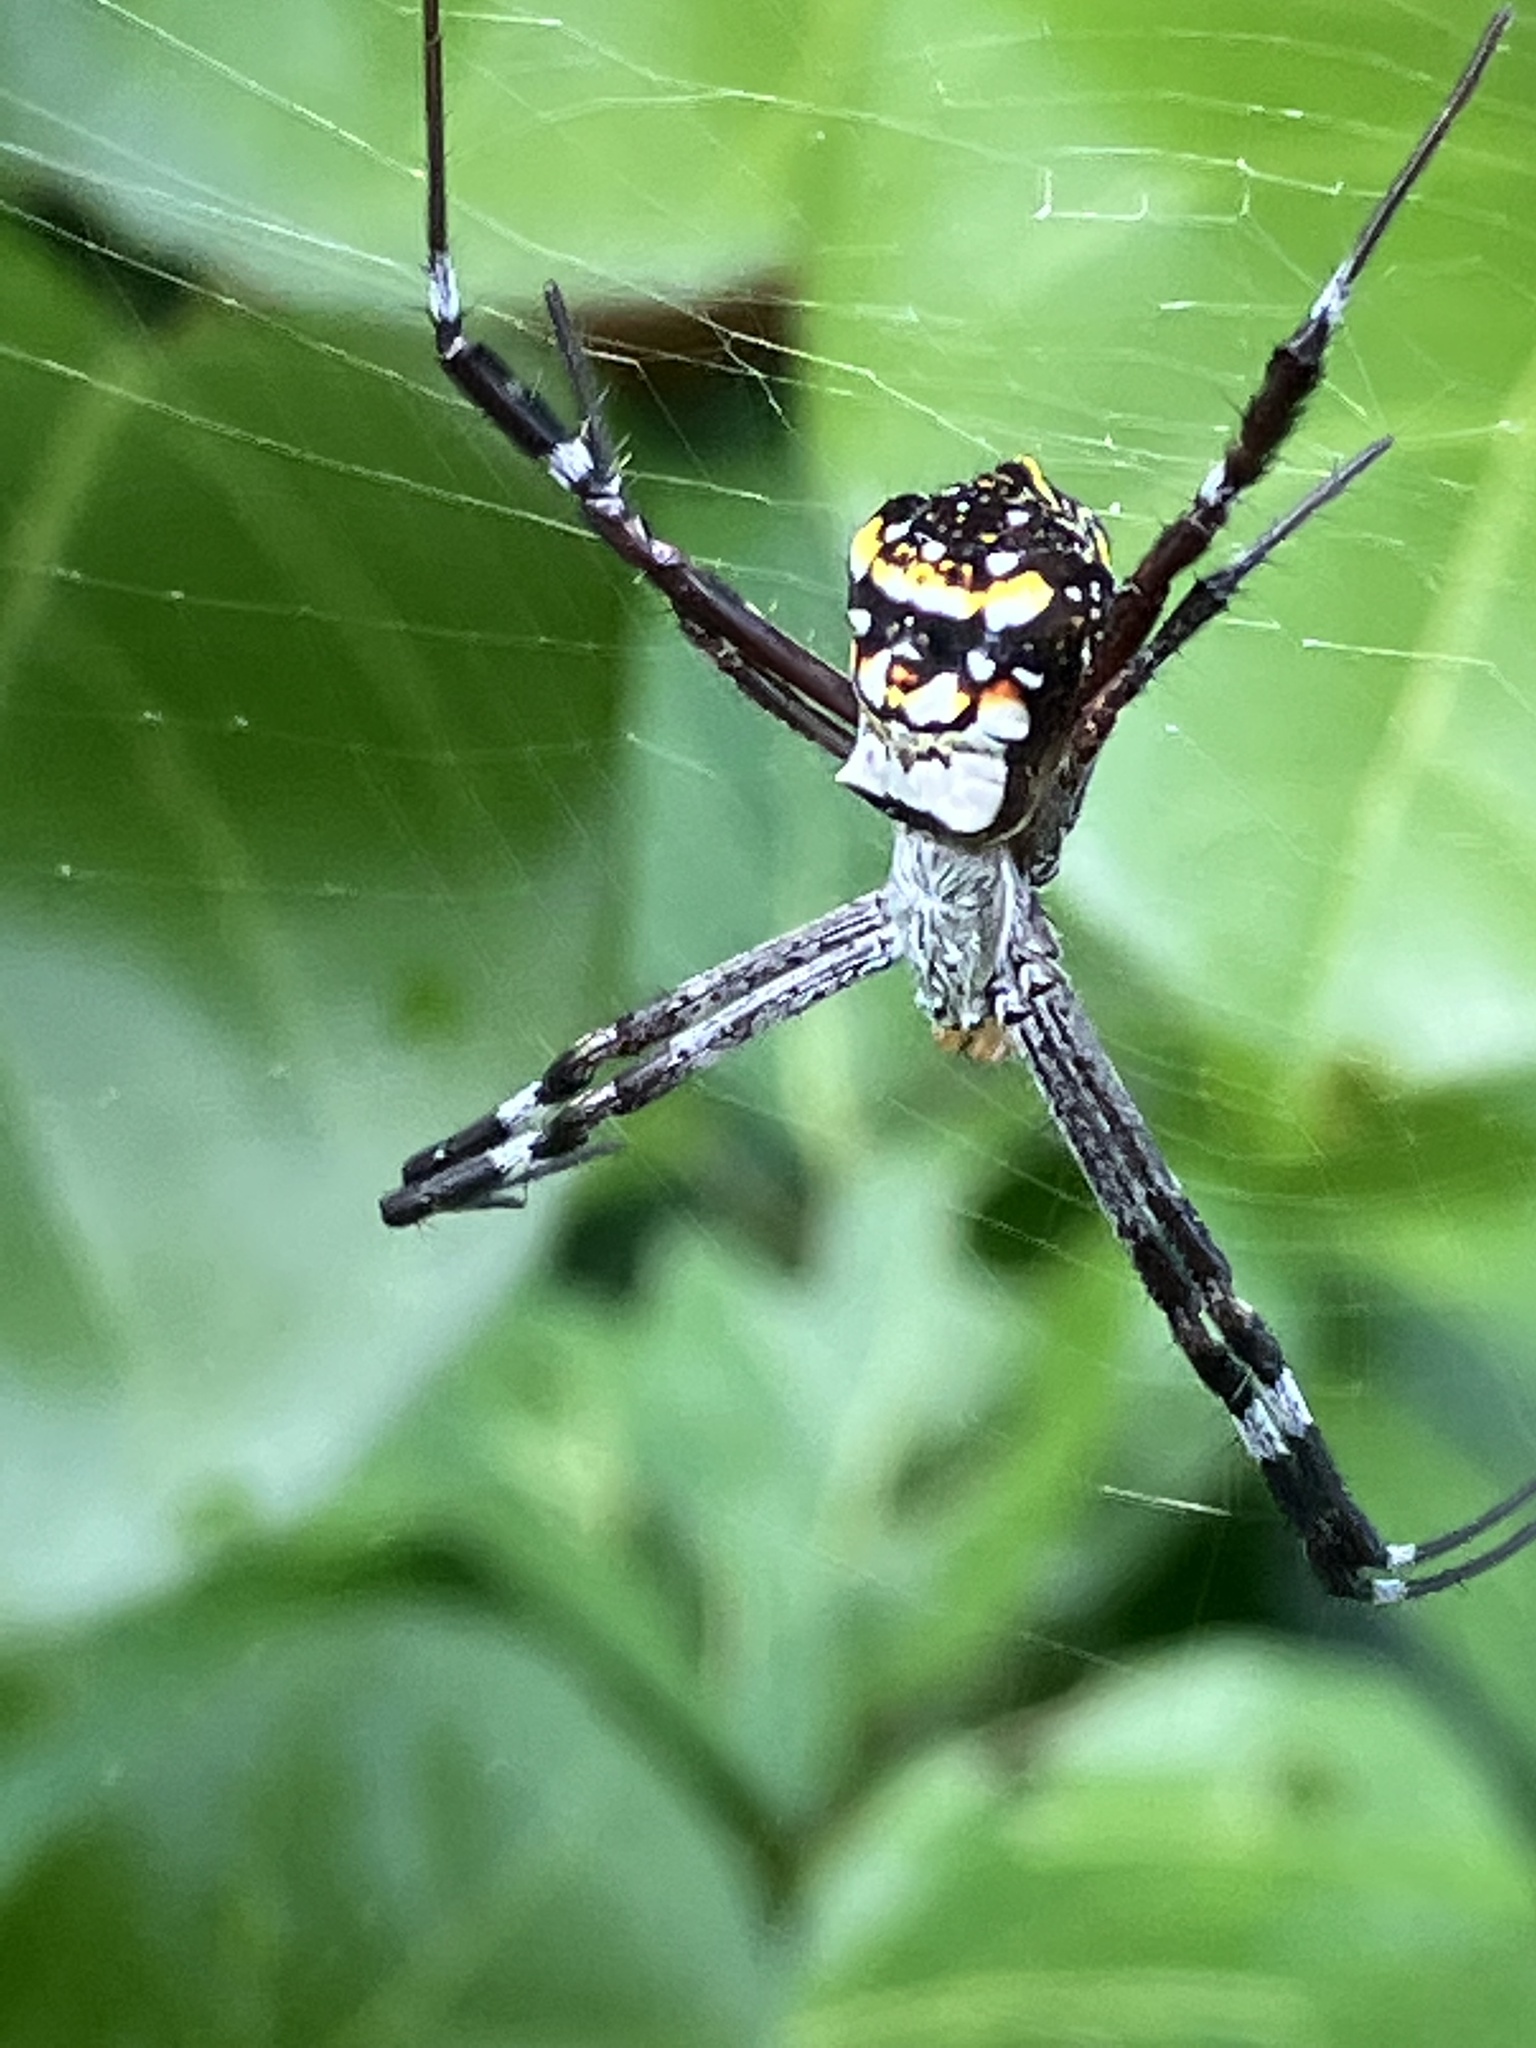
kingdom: Animalia
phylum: Arthropoda
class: Arachnida
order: Araneae
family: Araneidae
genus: Argiope
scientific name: Argiope anasuja
